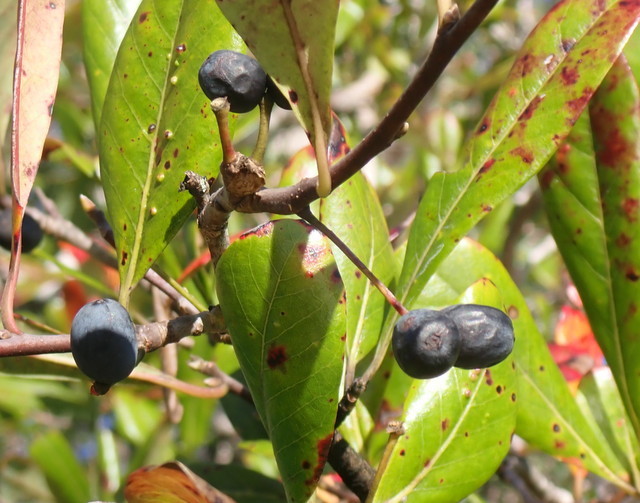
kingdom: Plantae
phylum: Tracheophyta
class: Magnoliopsida
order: Cornales
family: Nyssaceae
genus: Nyssa
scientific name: Nyssa biflora
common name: Swamp blackgum
